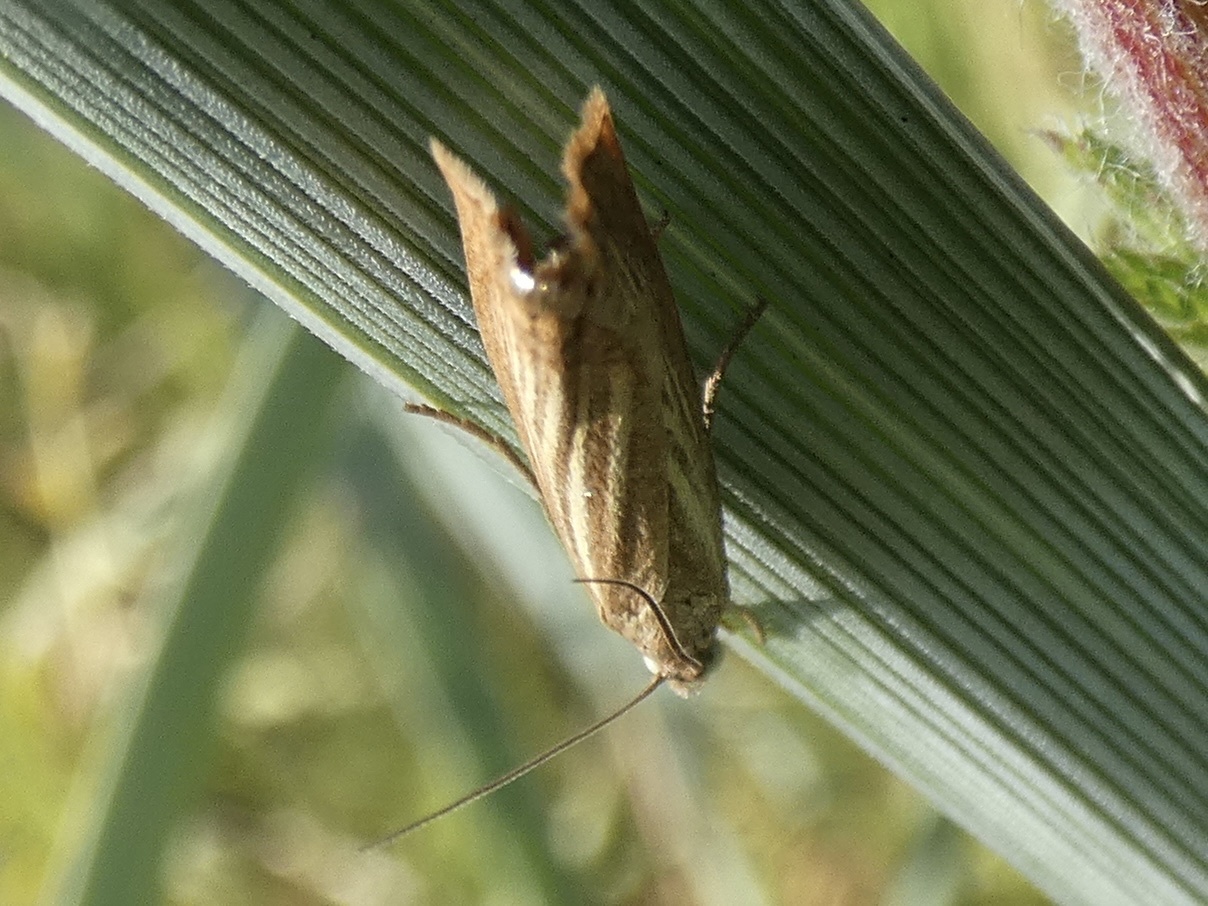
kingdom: Animalia
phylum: Arthropoda
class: Insecta
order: Lepidoptera
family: Crambidae
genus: Chrysoteuchia
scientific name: Chrysoteuchia culmella
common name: Garden grass-veneer
